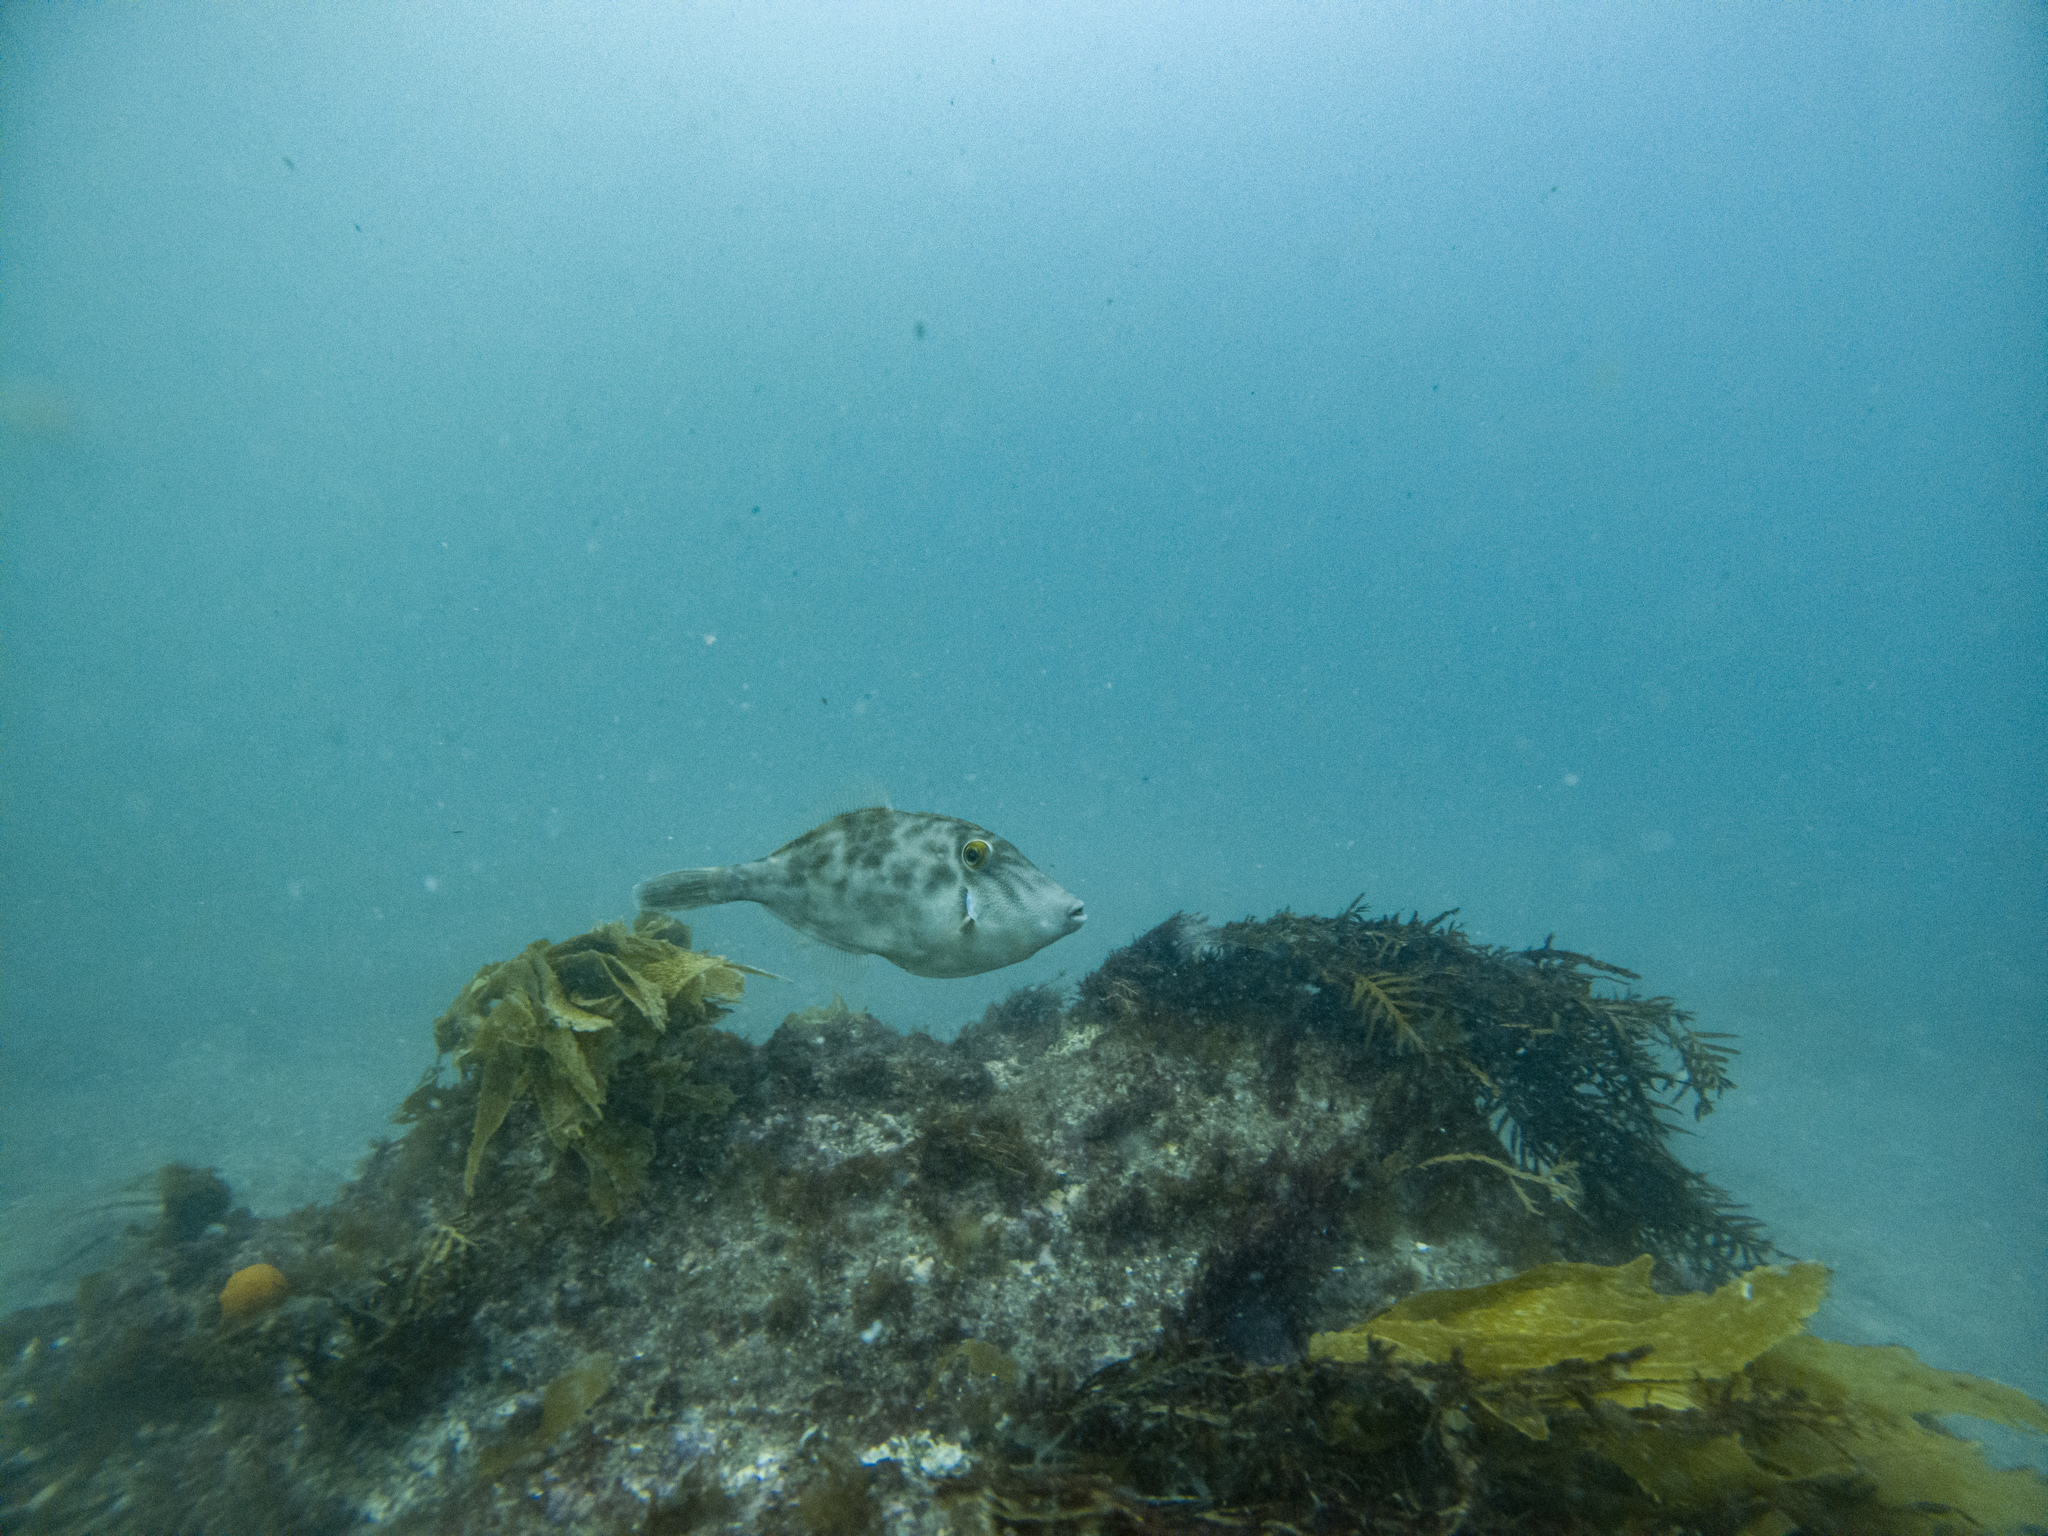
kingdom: Animalia
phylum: Chordata
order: Tetraodontiformes
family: Monacanthidae
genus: Meuschenia
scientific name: Meuschenia scaber
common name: Cosmopolitan leatherjacket
